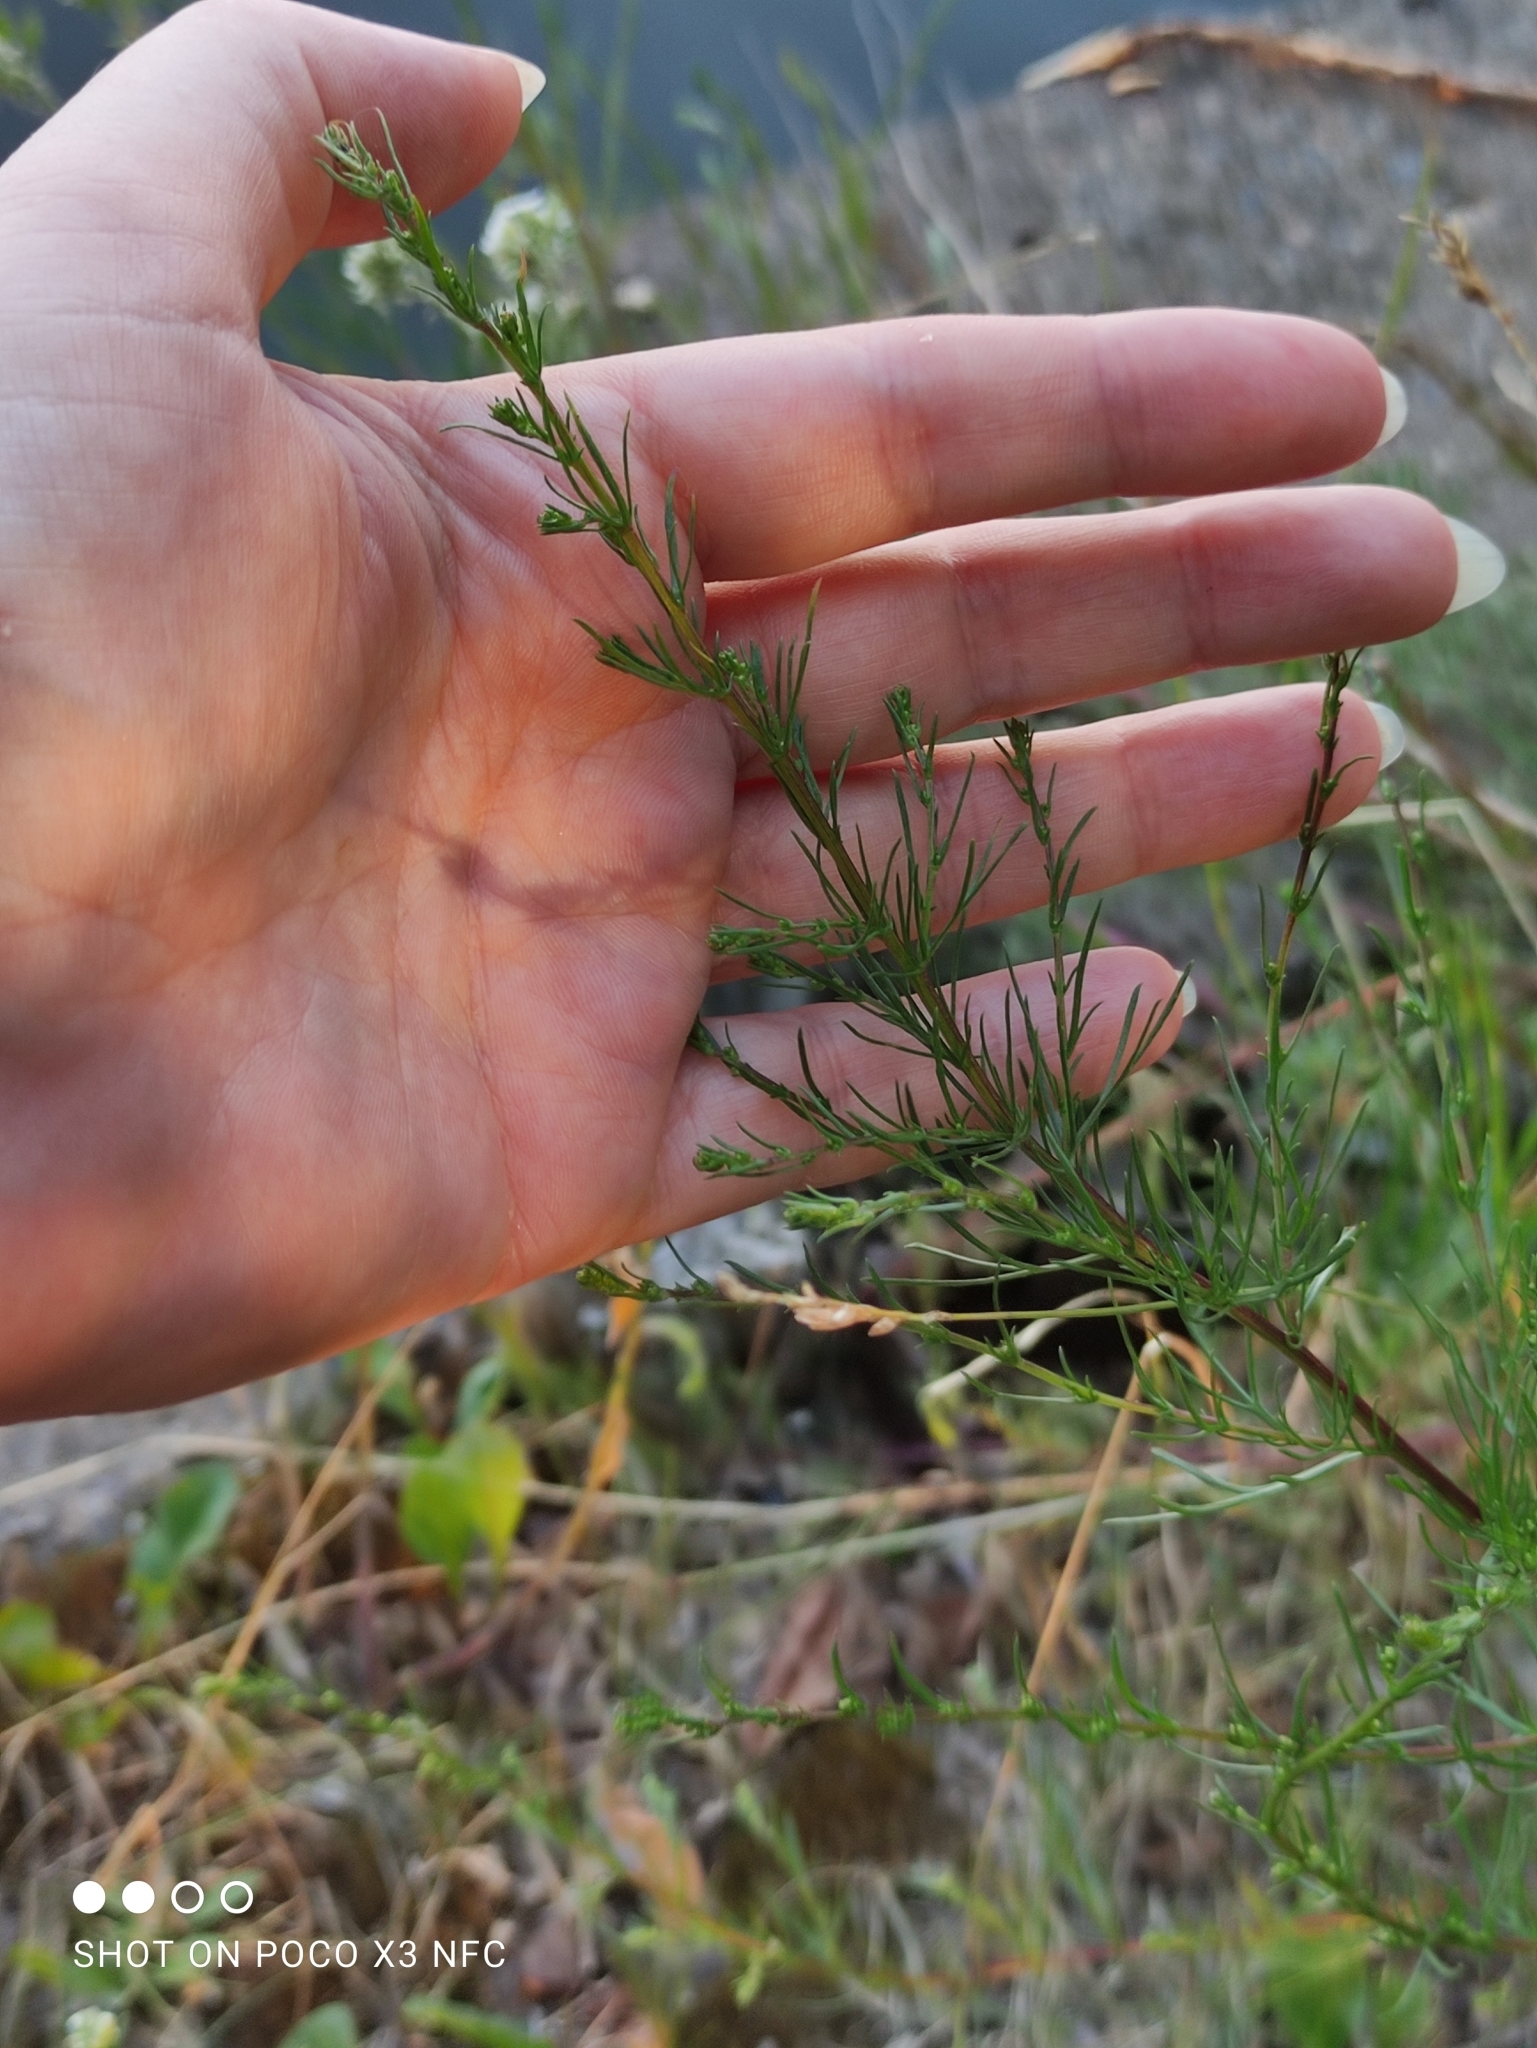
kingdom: Plantae
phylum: Tracheophyta
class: Magnoliopsida
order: Asterales
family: Asteraceae
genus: Artemisia
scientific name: Artemisia campestris
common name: Field wormwood
